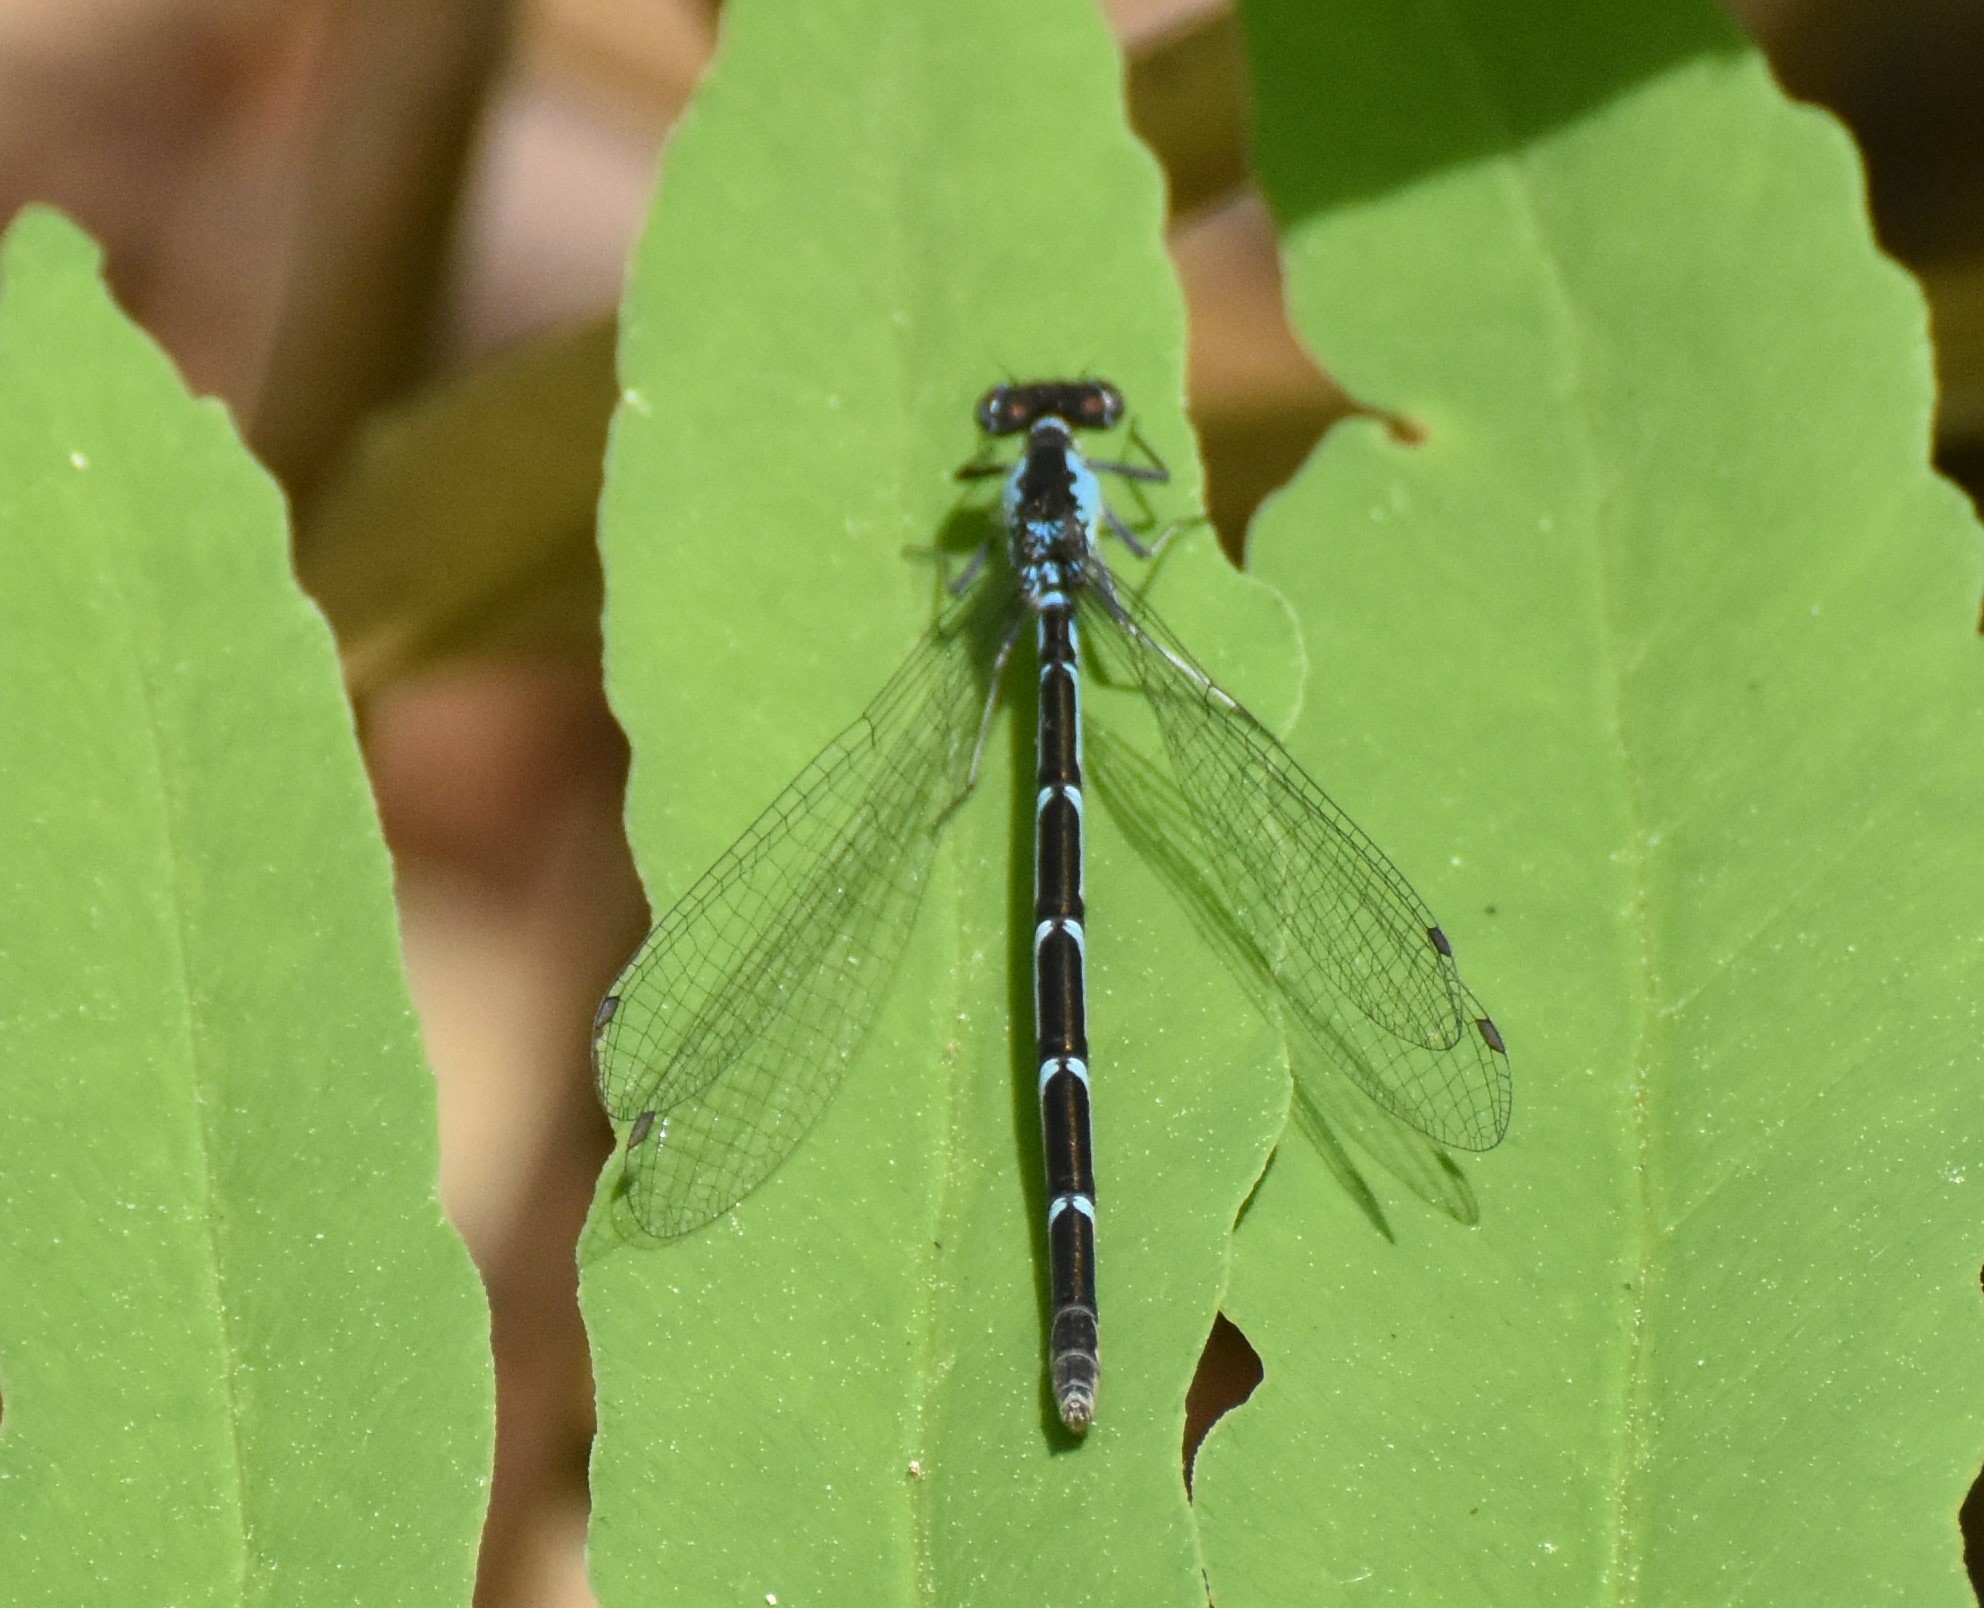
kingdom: Animalia
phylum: Arthropoda
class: Insecta
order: Odonata
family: Coenagrionidae
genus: Chromagrion
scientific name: Chromagrion conditum
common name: Aurora damsel
